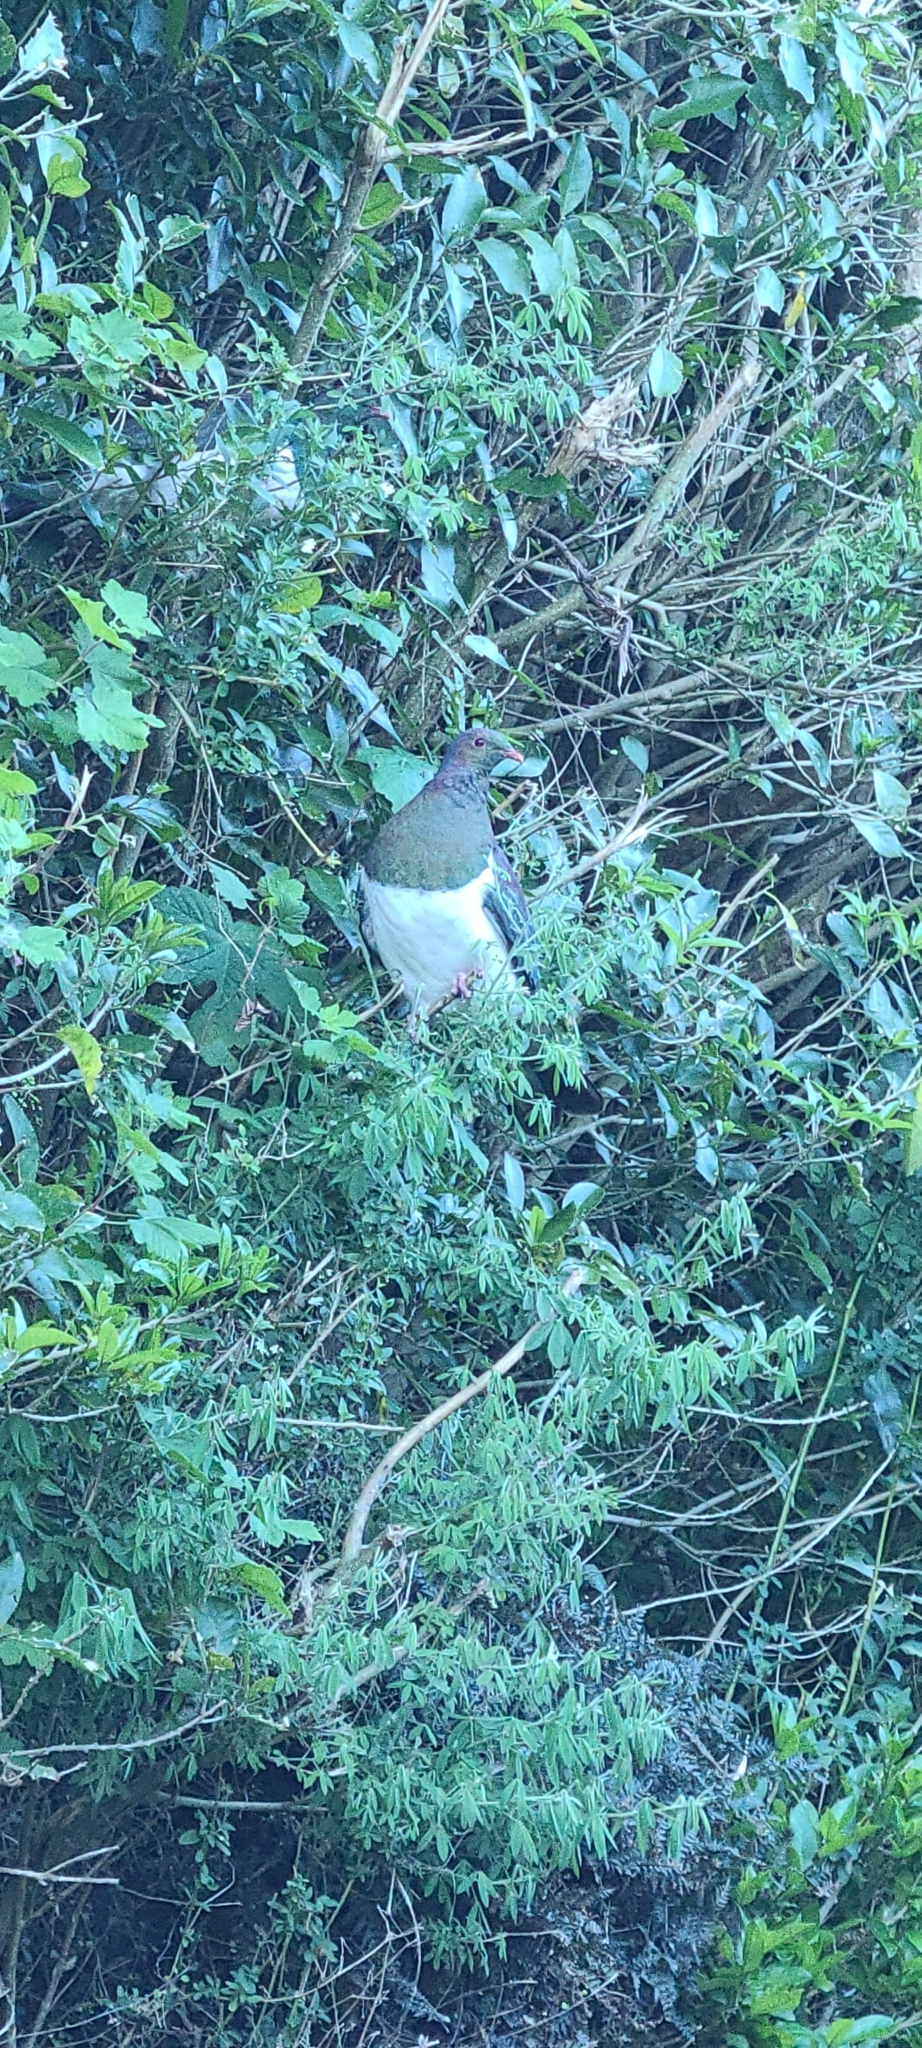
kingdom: Animalia
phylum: Chordata
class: Aves
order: Columbiformes
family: Columbidae
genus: Hemiphaga
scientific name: Hemiphaga novaeseelandiae
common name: New zealand pigeon
